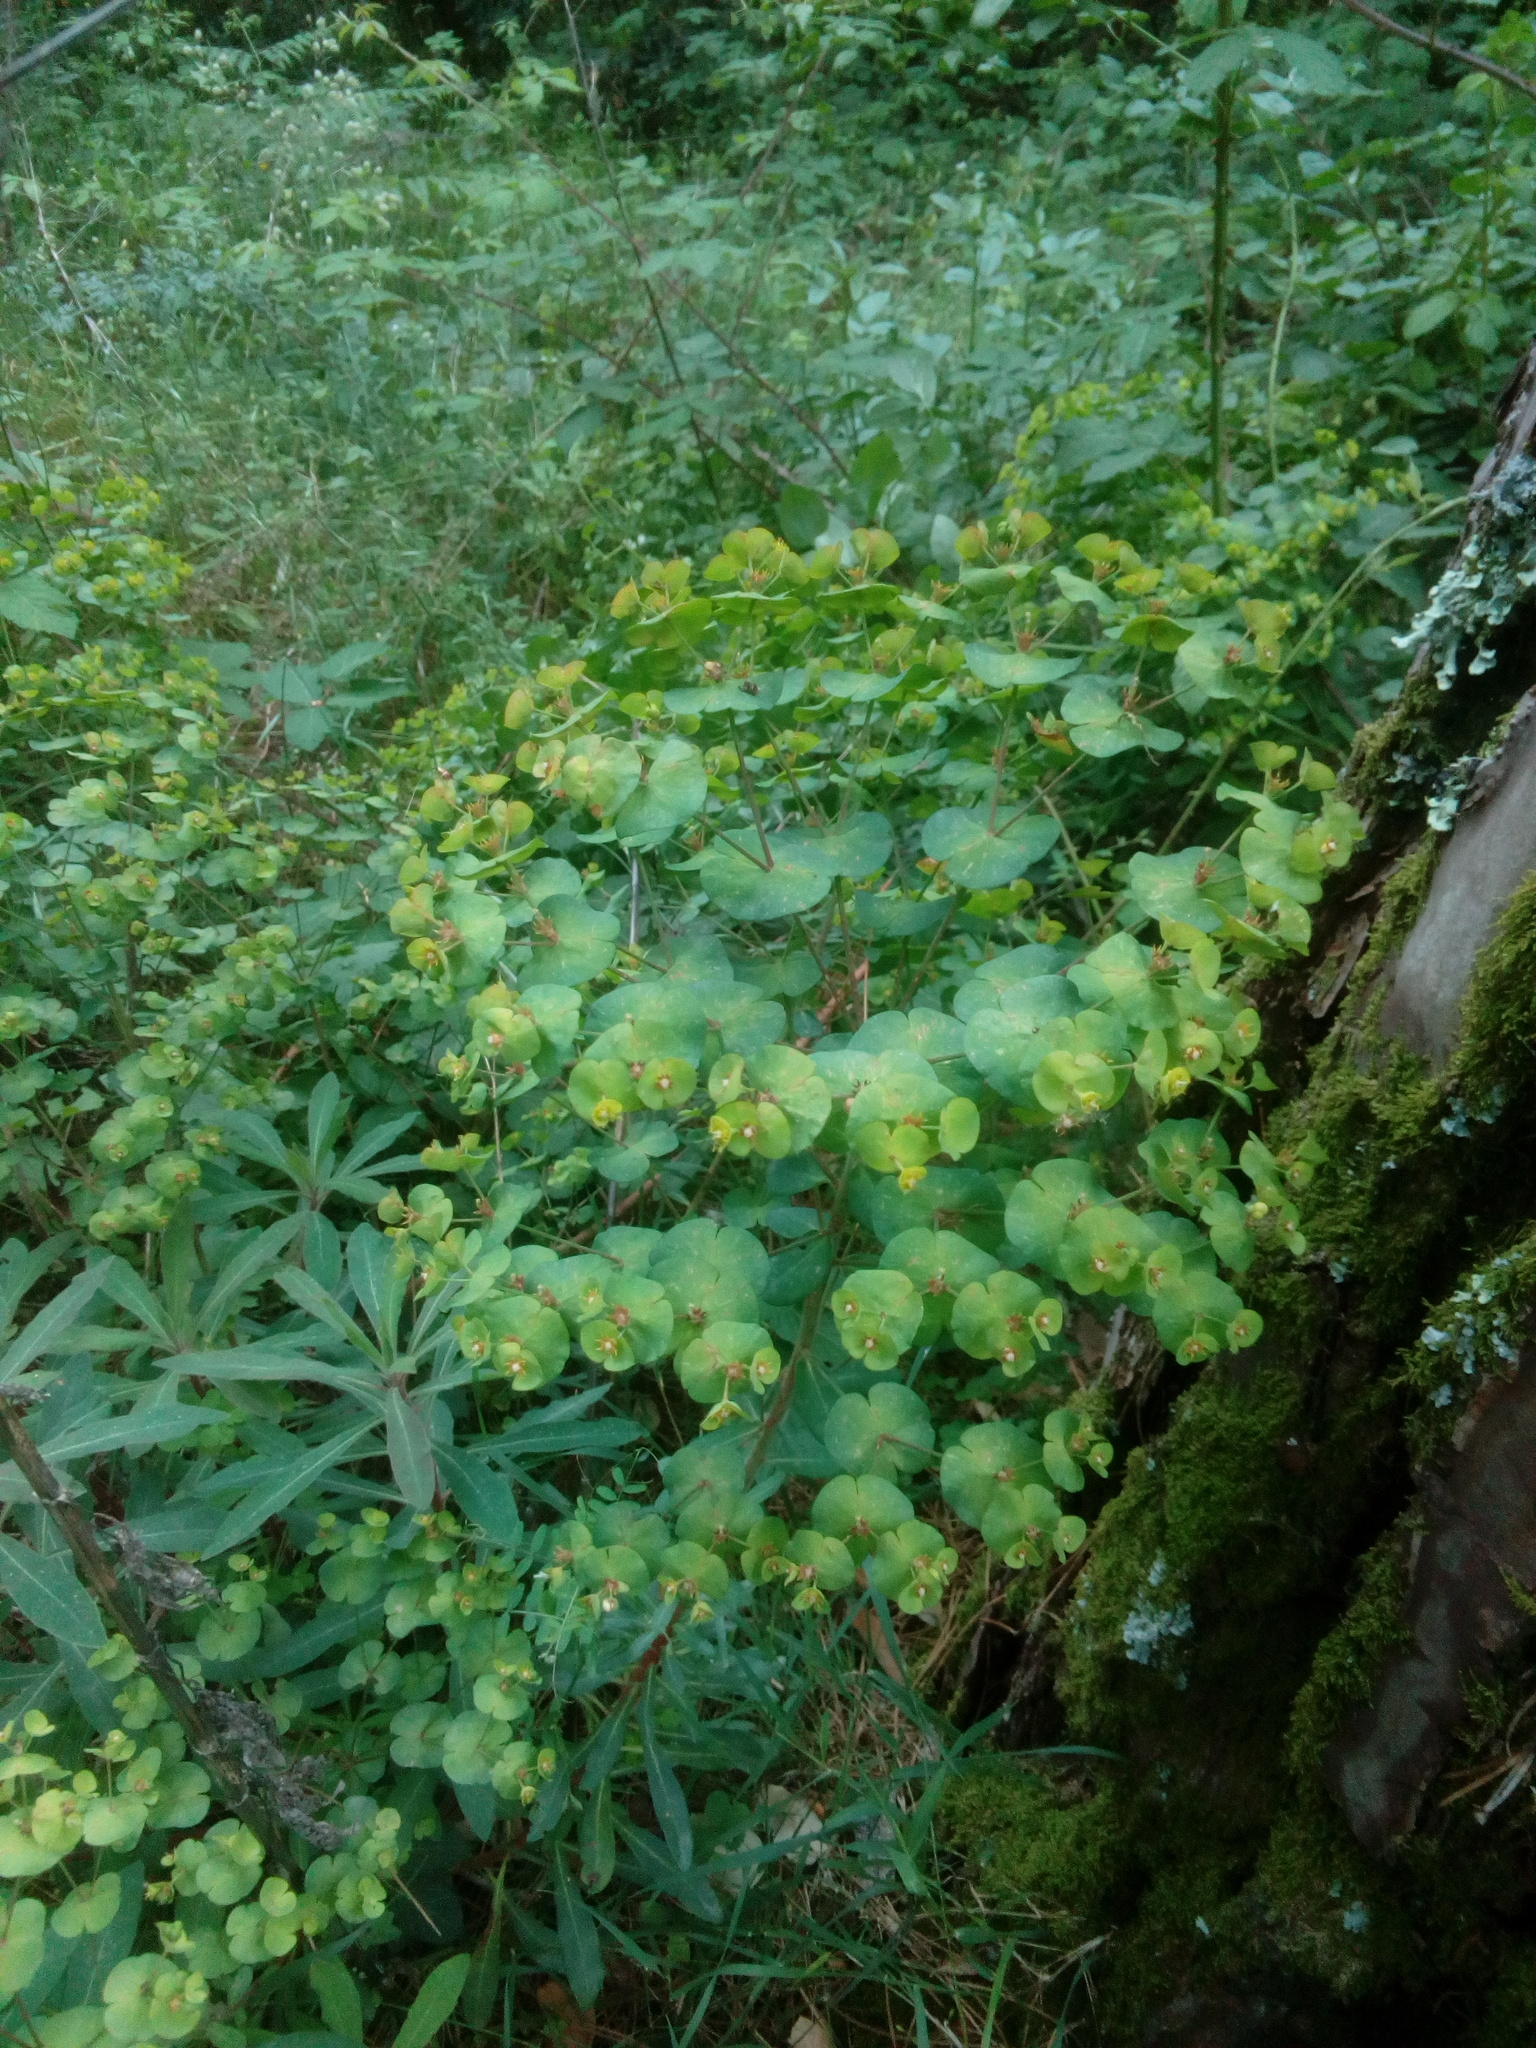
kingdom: Plantae
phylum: Tracheophyta
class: Magnoliopsida
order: Malpighiales
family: Euphorbiaceae
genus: Euphorbia
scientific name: Euphorbia amygdaloides
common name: Wood spurge
